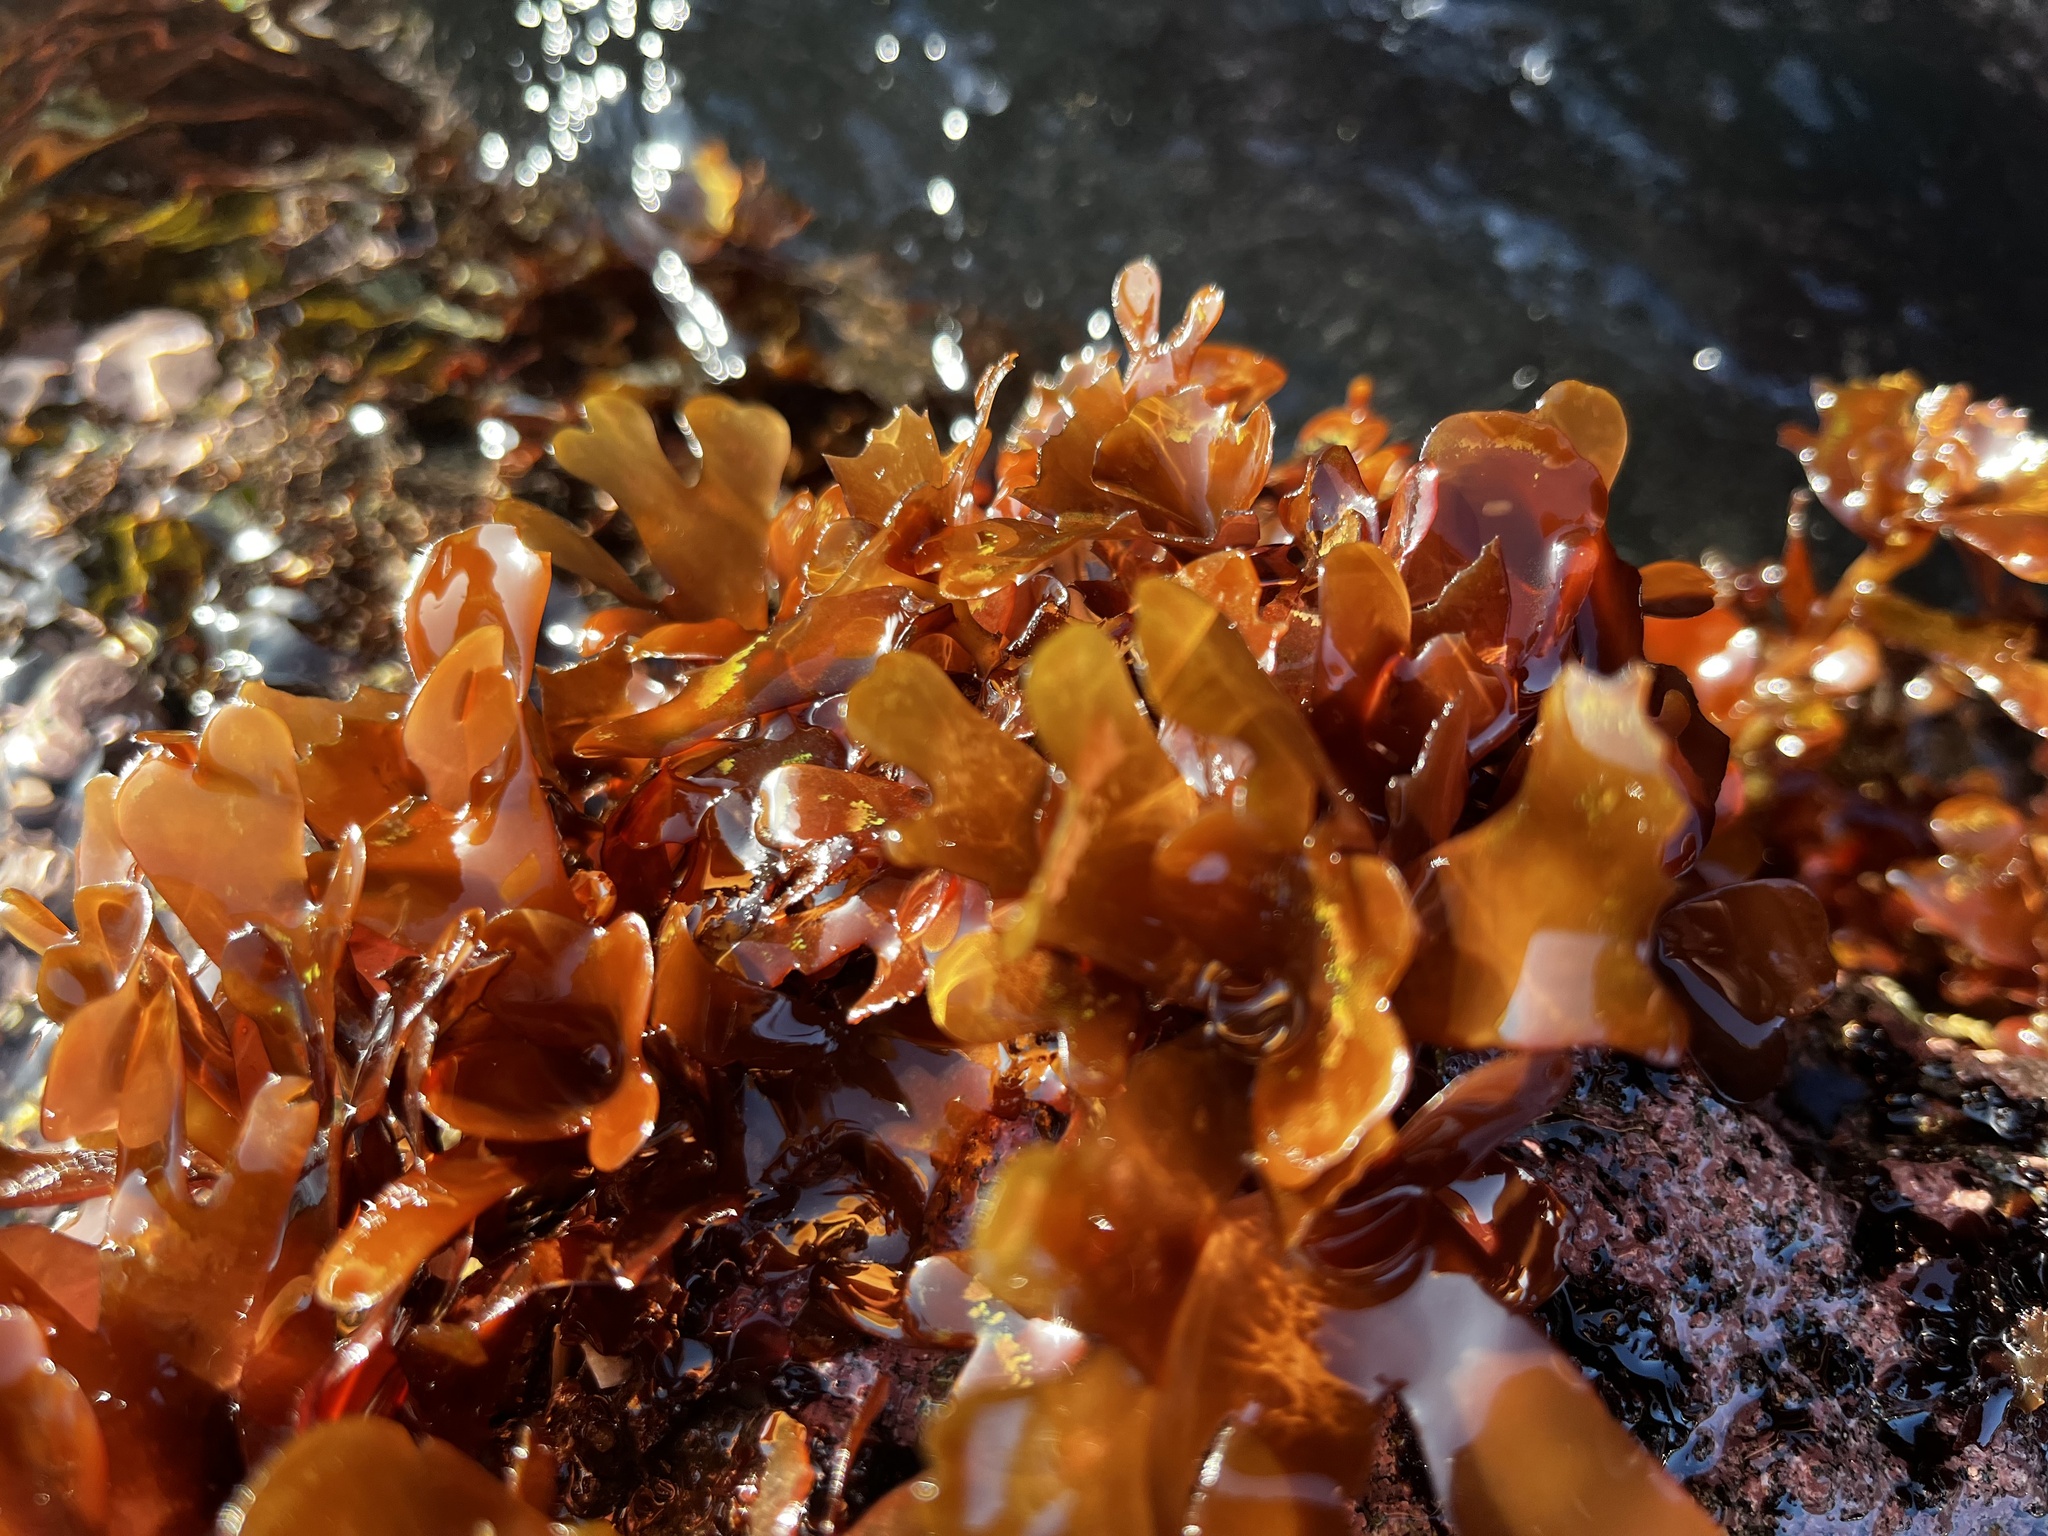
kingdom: Plantae
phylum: Rhodophyta
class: Florideophyceae
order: Rhodymeniales
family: Rhodymeniaceae
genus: Rhodymenia
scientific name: Rhodymenia skottsbergi
